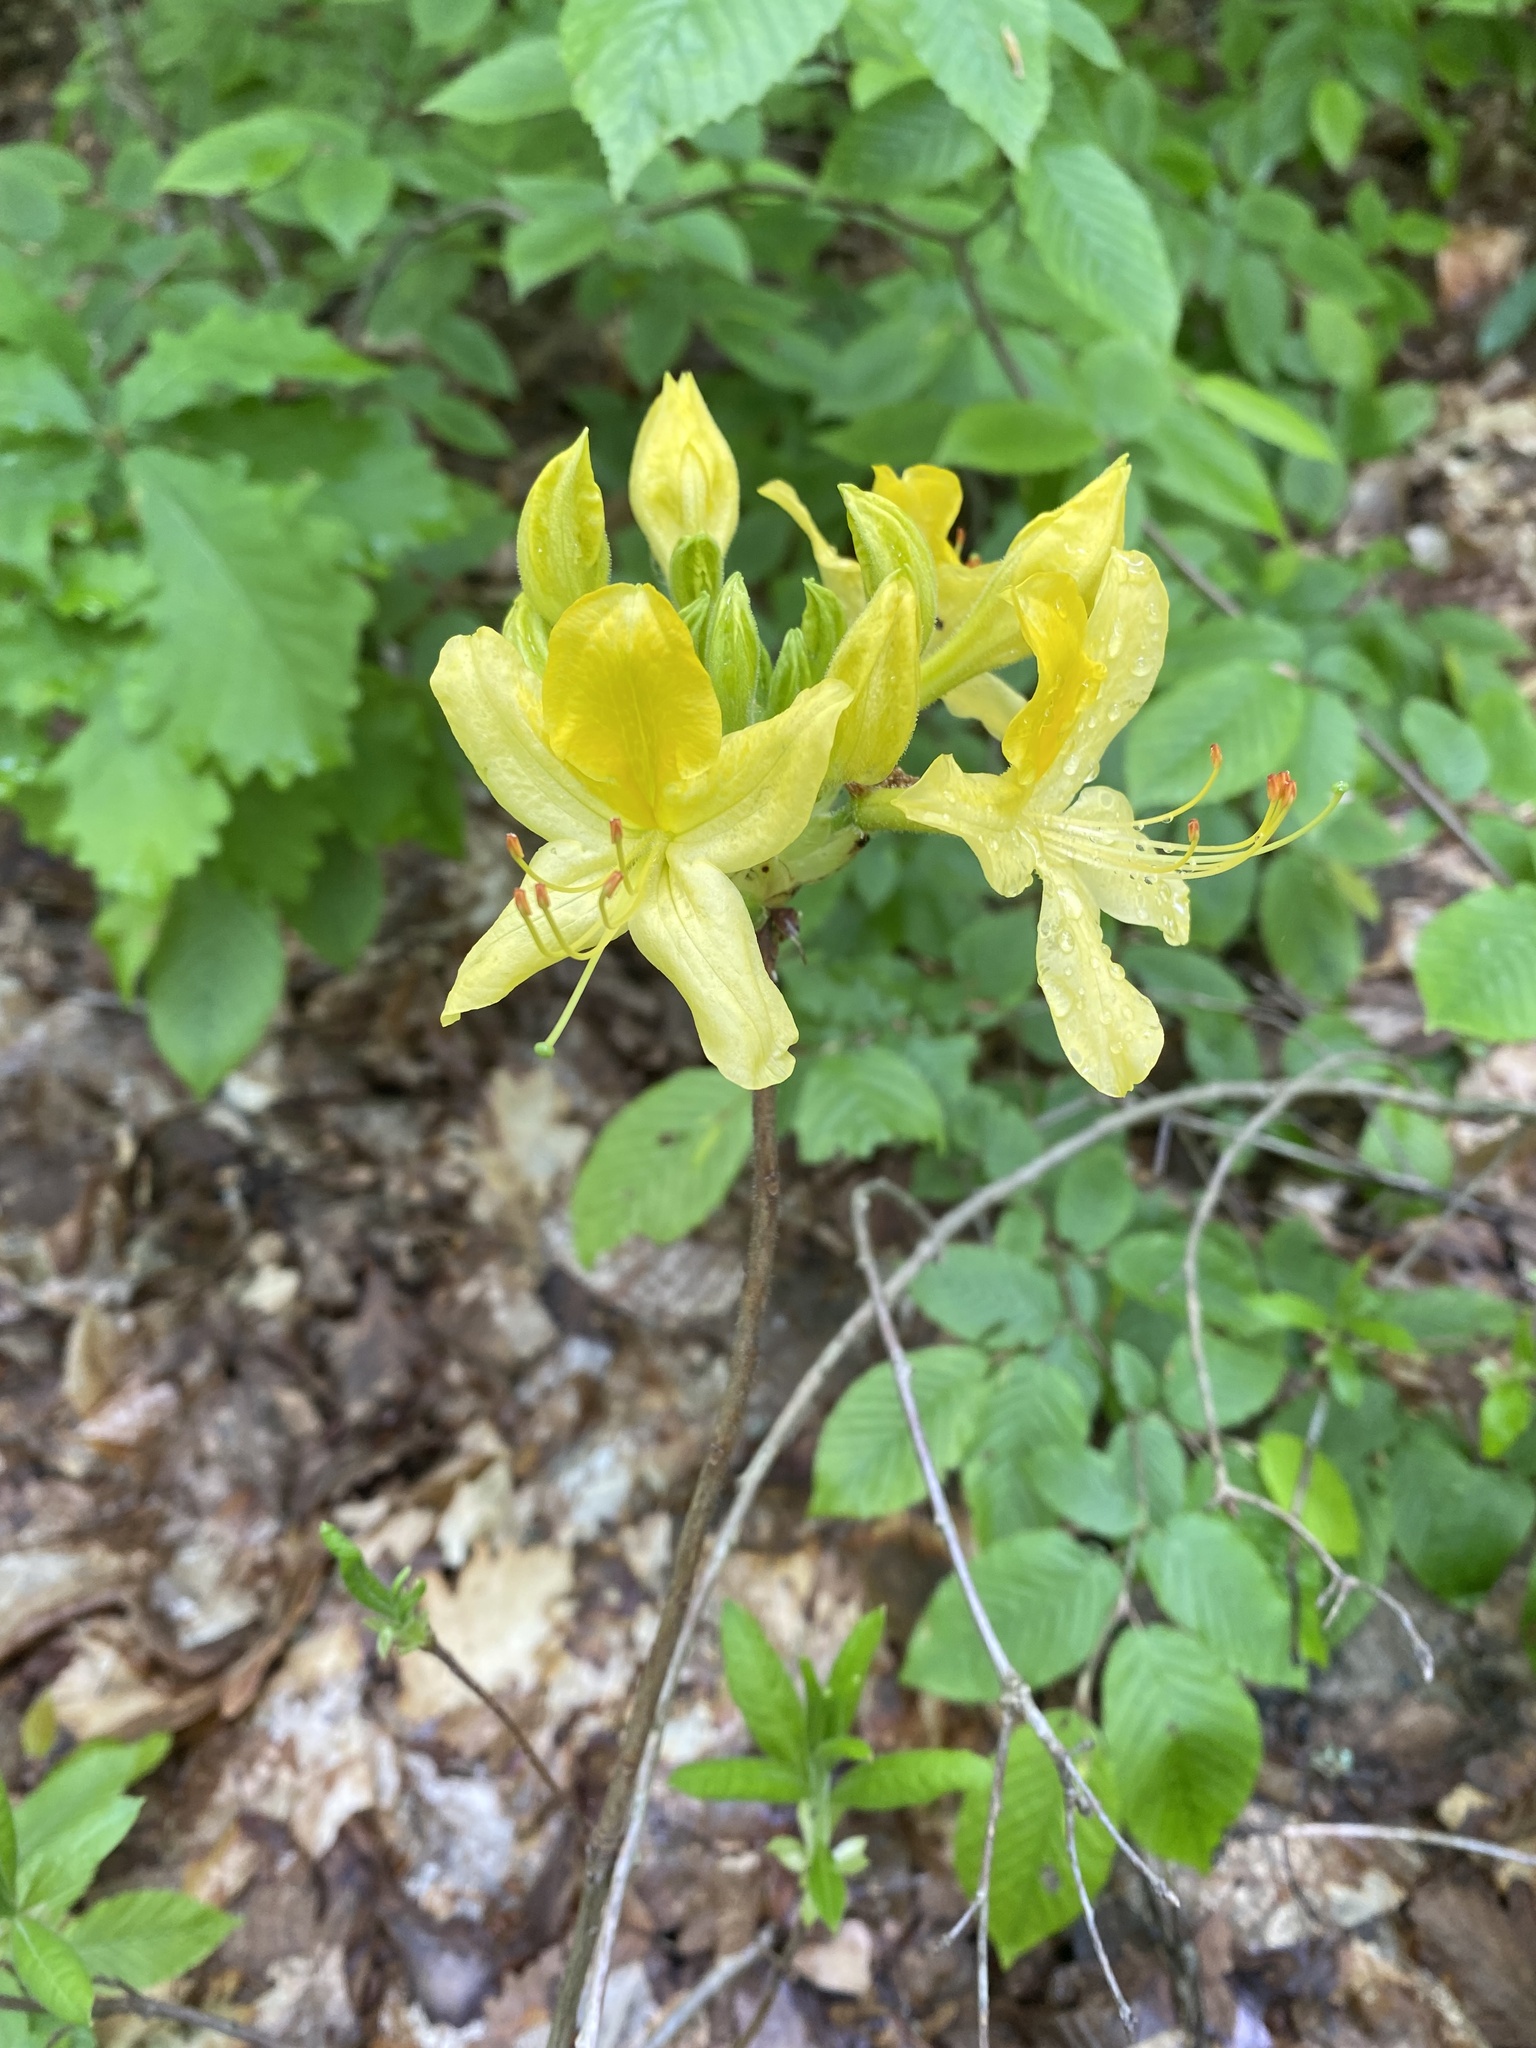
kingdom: Plantae
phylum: Tracheophyta
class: Magnoliopsida
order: Ericales
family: Ericaceae
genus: Rhododendron
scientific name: Rhododendron luteum
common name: Yellow azalea
